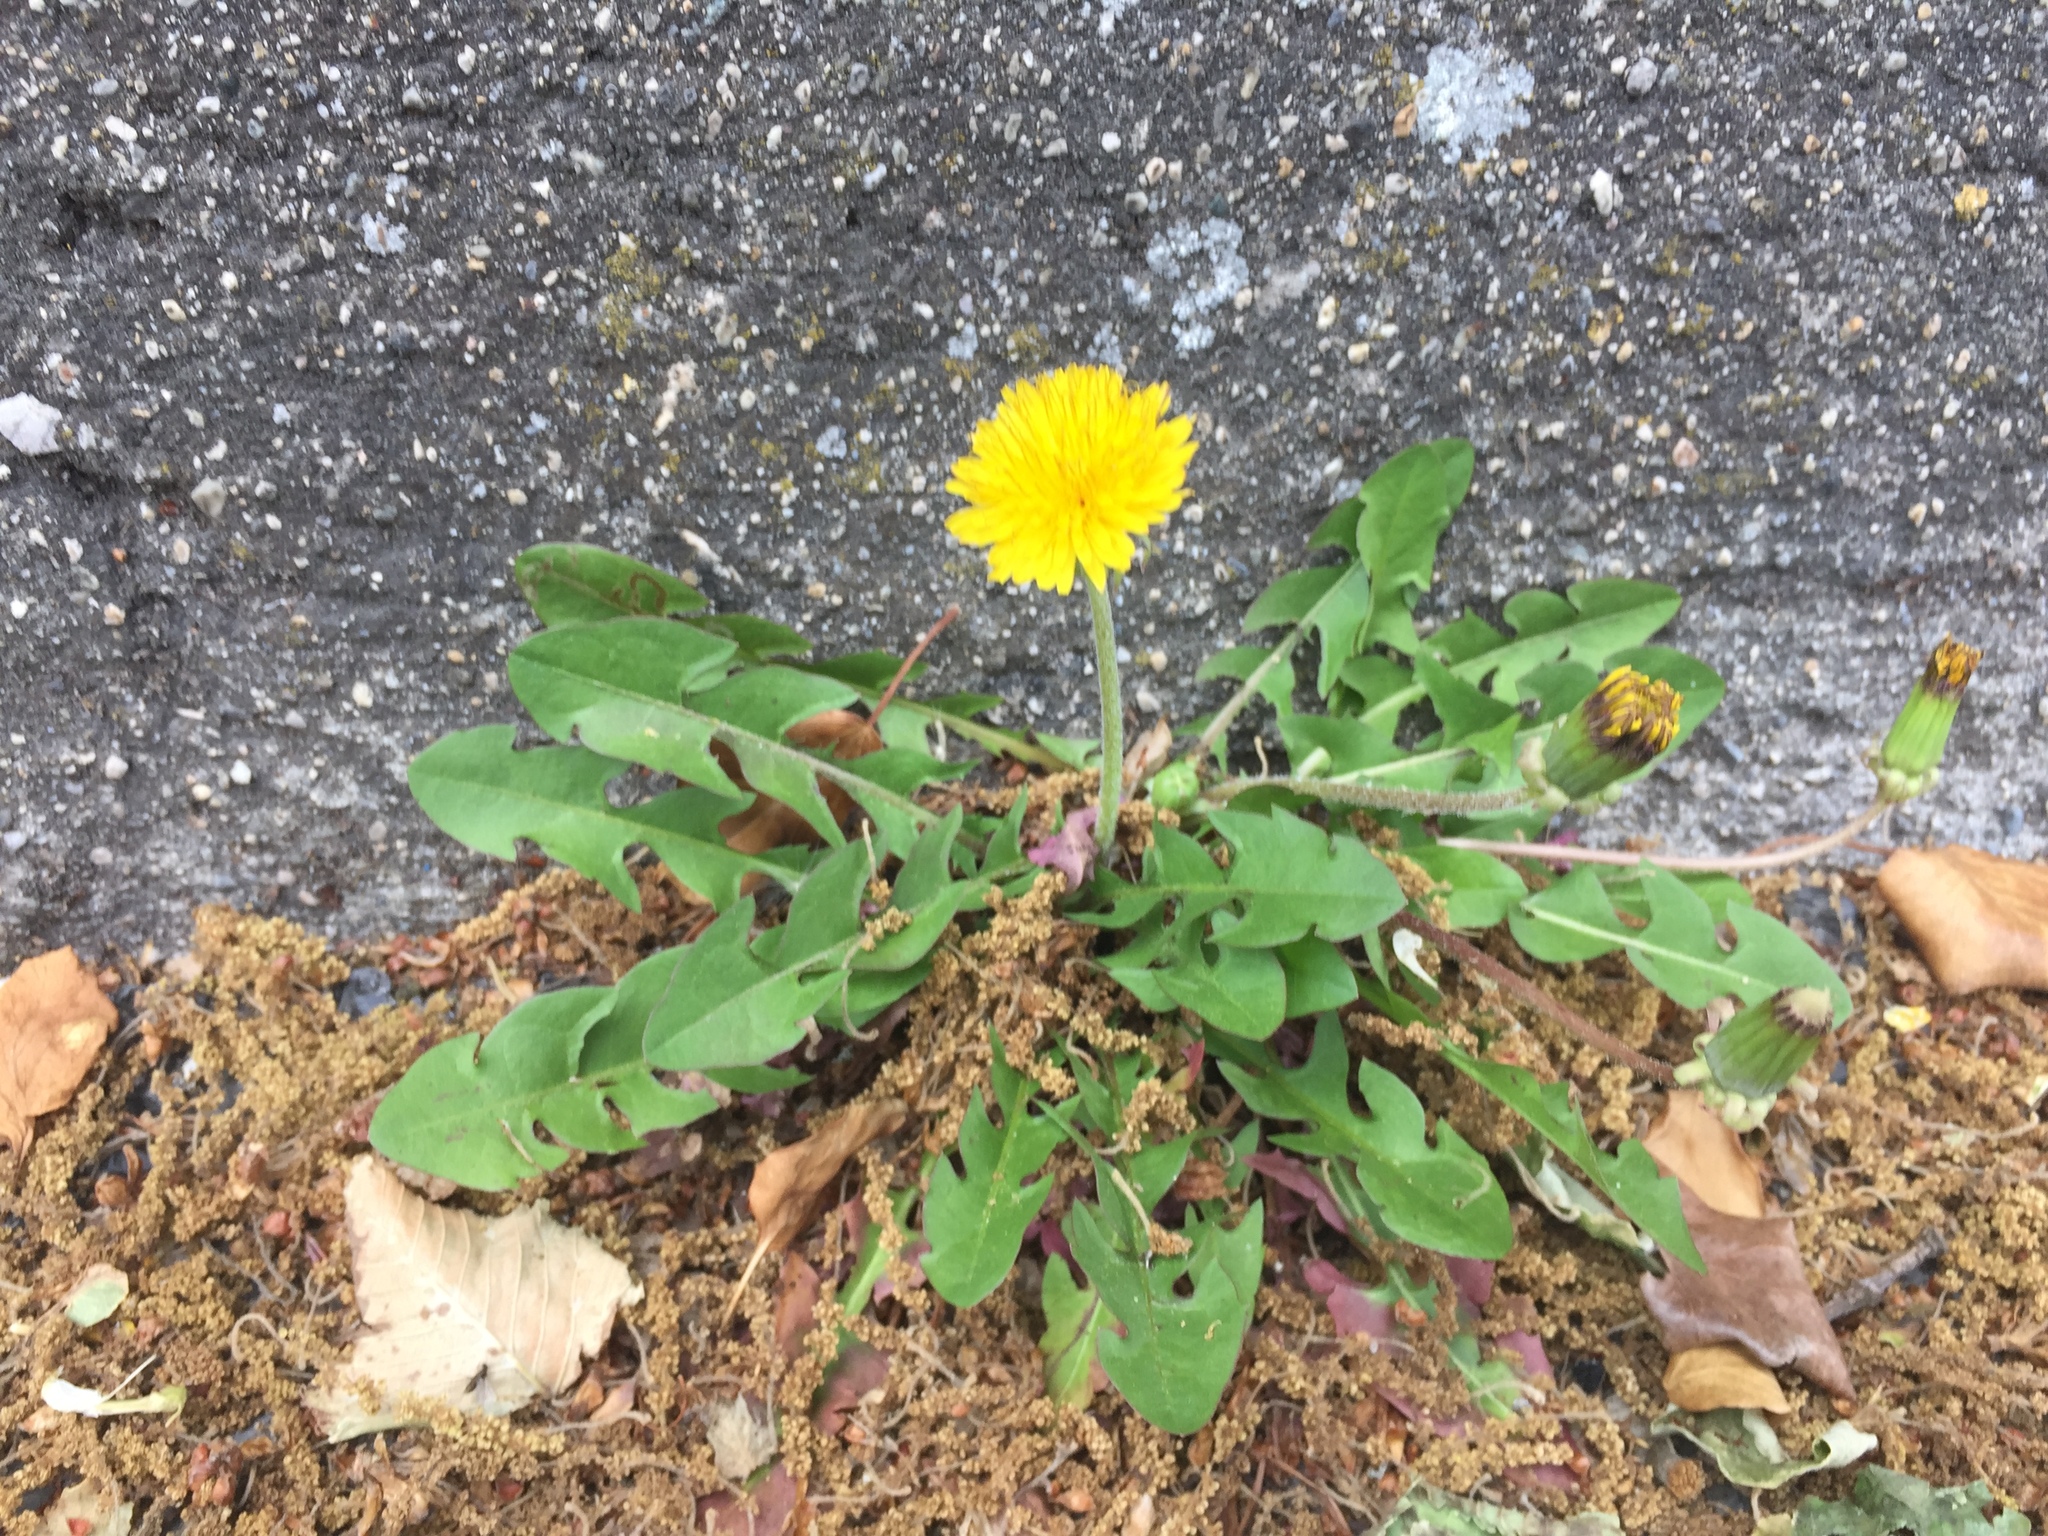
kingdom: Plantae
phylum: Tracheophyta
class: Magnoliopsida
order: Asterales
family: Asteraceae
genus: Taraxacum
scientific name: Taraxacum officinale
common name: Common dandelion
